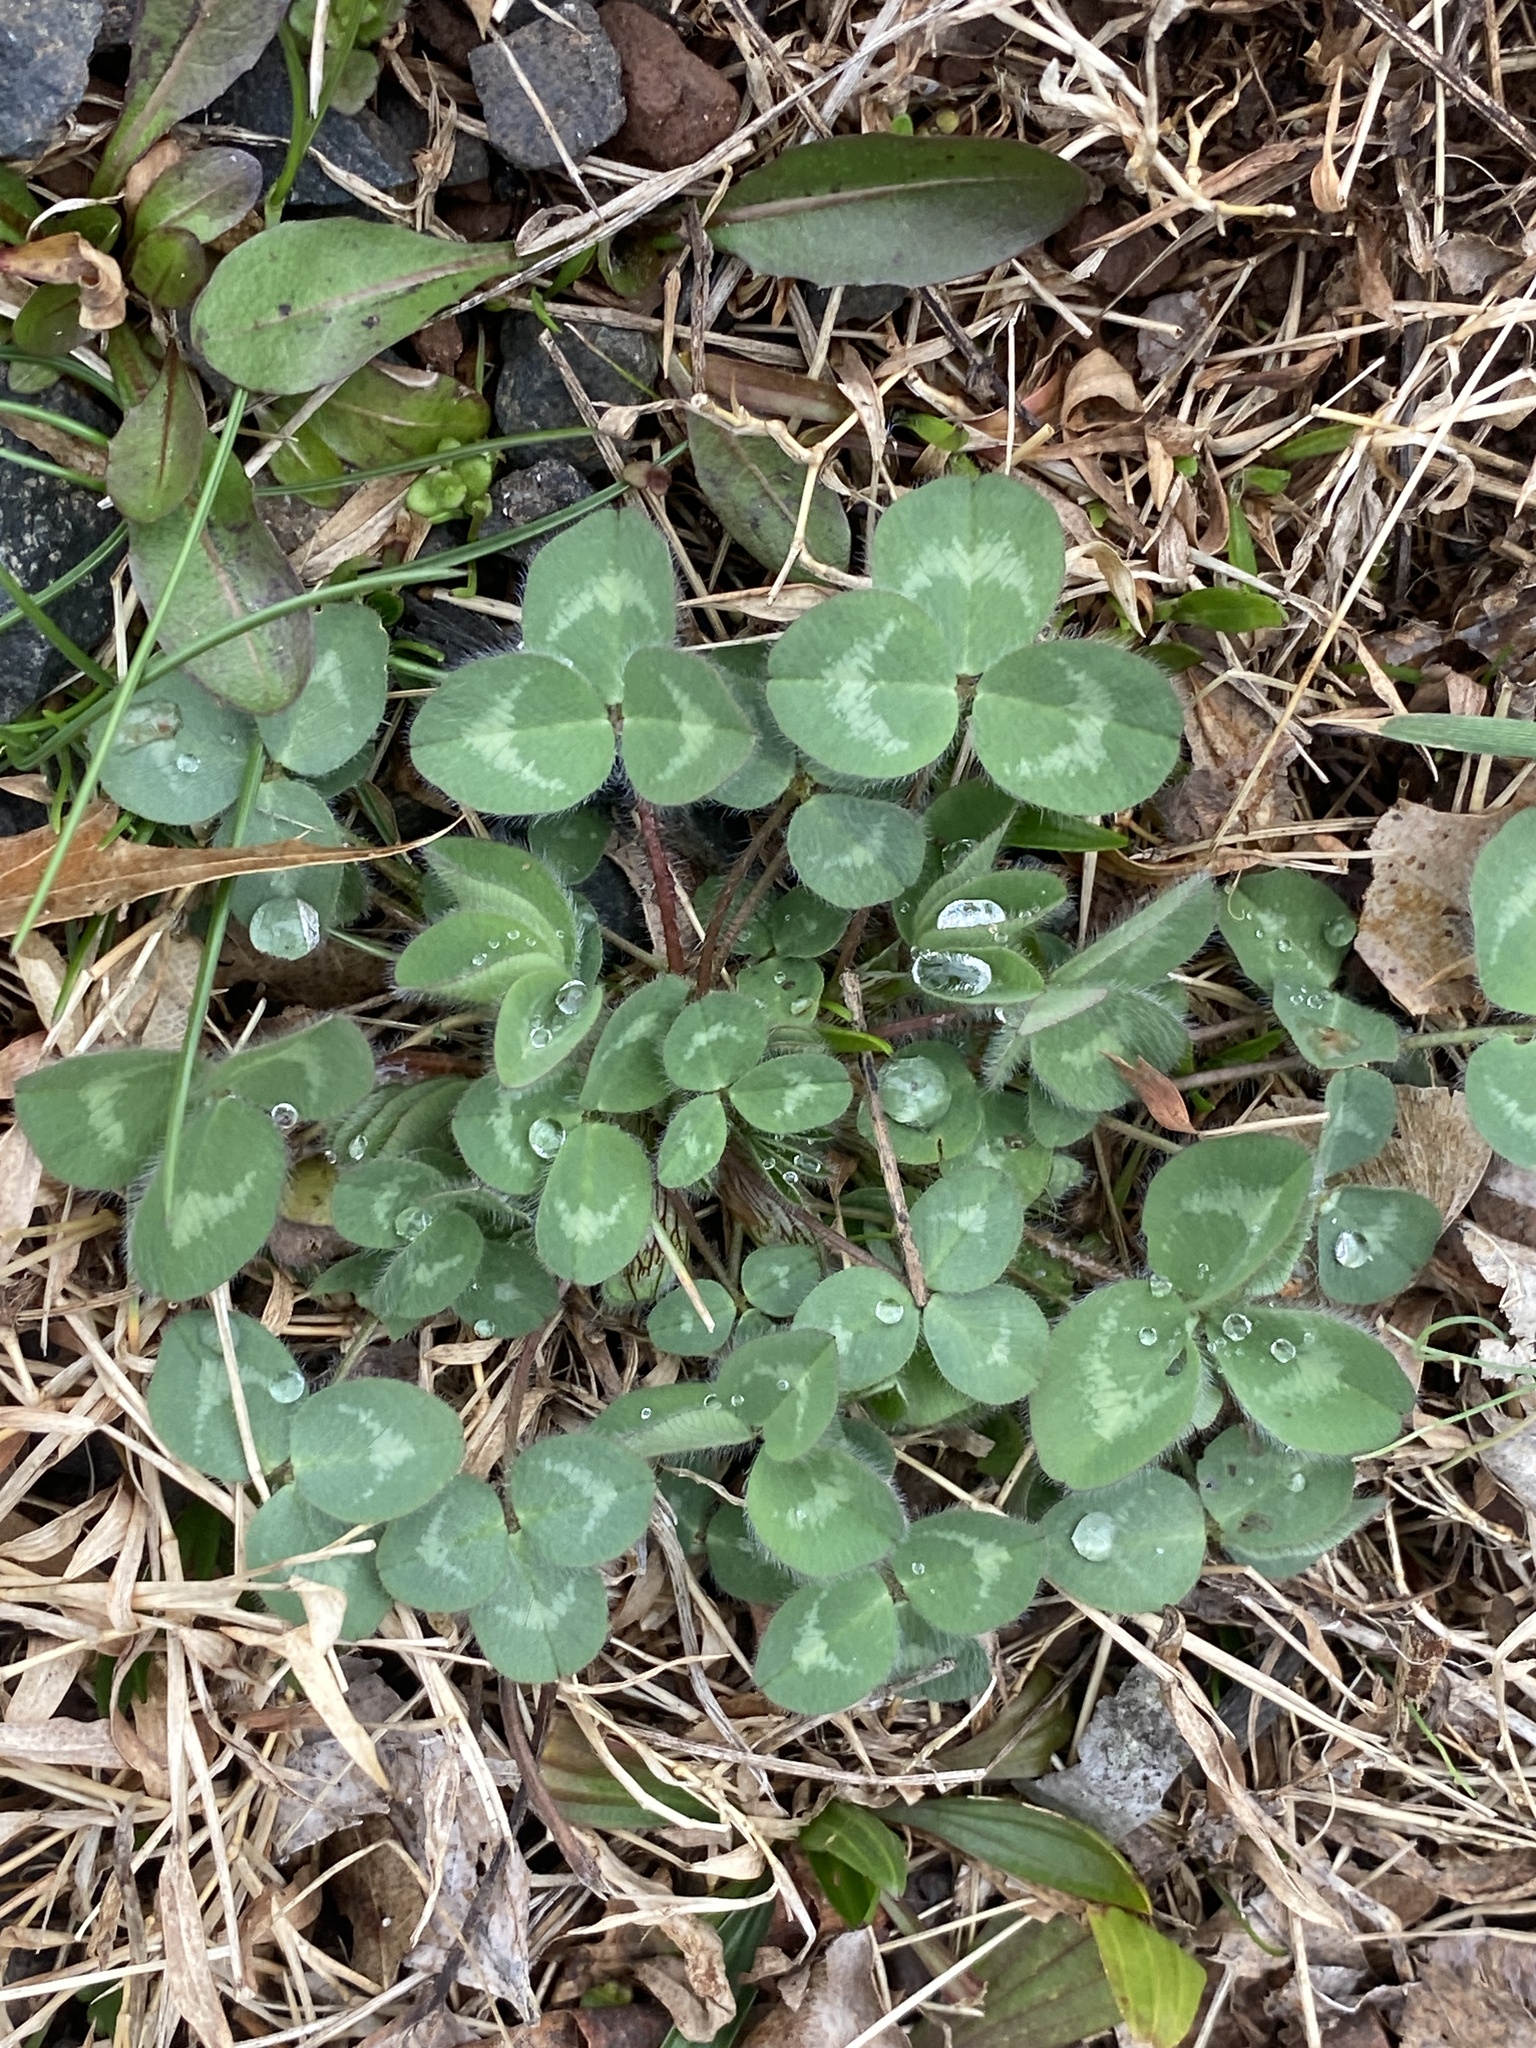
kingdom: Plantae
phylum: Tracheophyta
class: Magnoliopsida
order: Fabales
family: Fabaceae
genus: Trifolium
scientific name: Trifolium pratense
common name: Red clover
